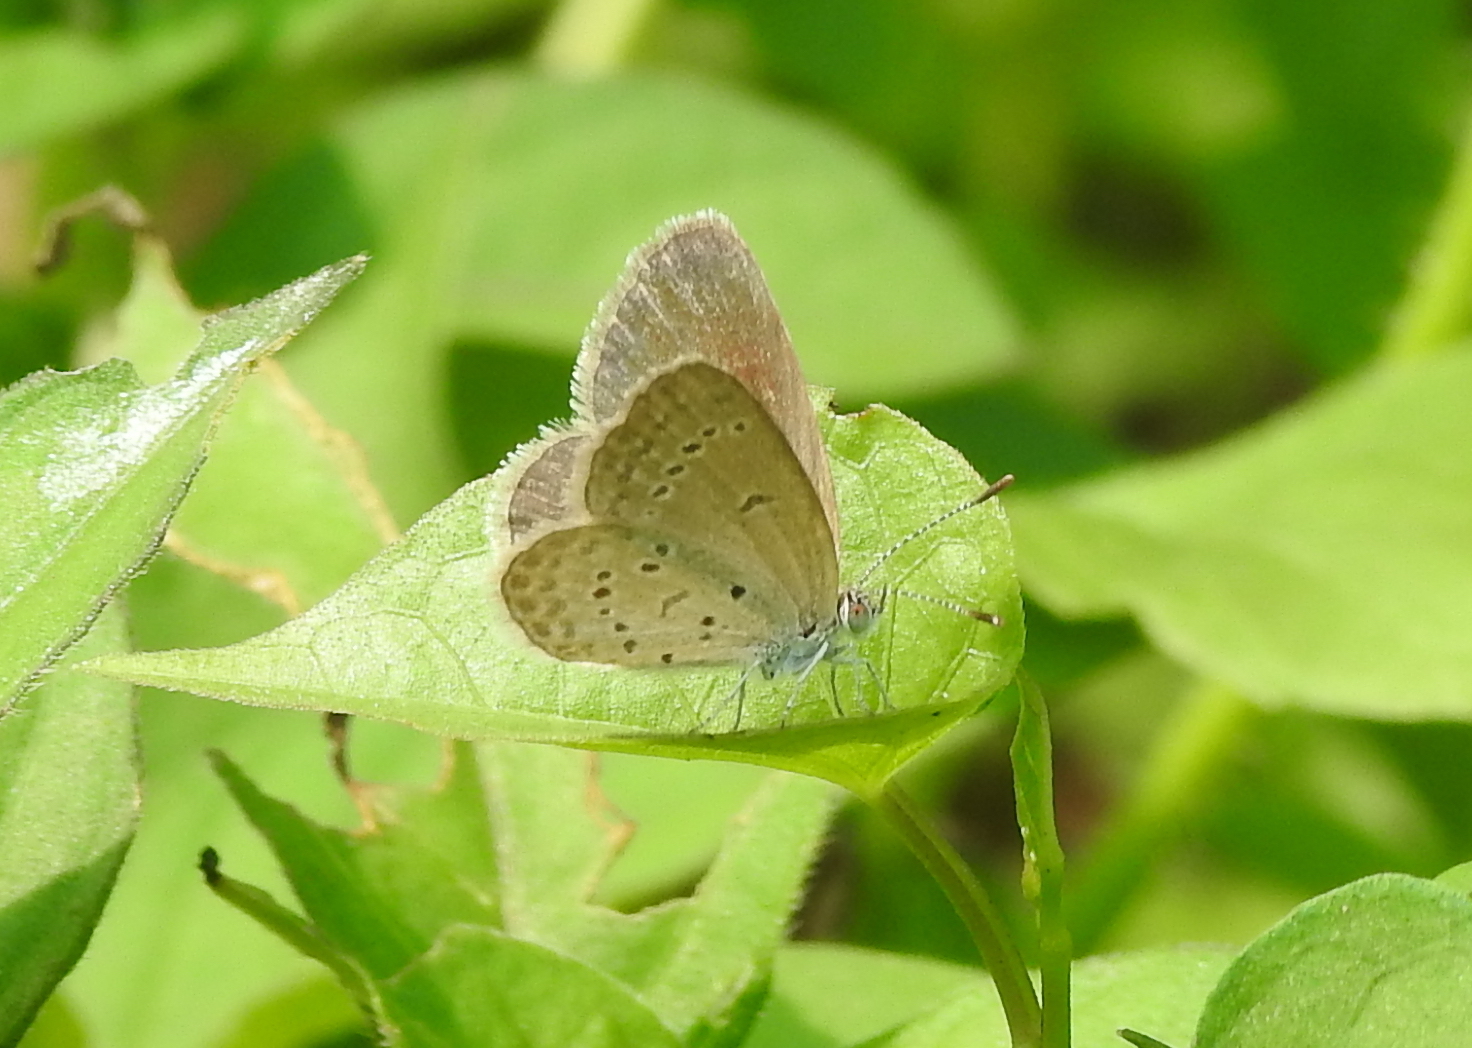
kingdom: Animalia
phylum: Arthropoda
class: Insecta
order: Lepidoptera
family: Lycaenidae
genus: Zizina
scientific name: Zizina otis
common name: Lesser grass blue
